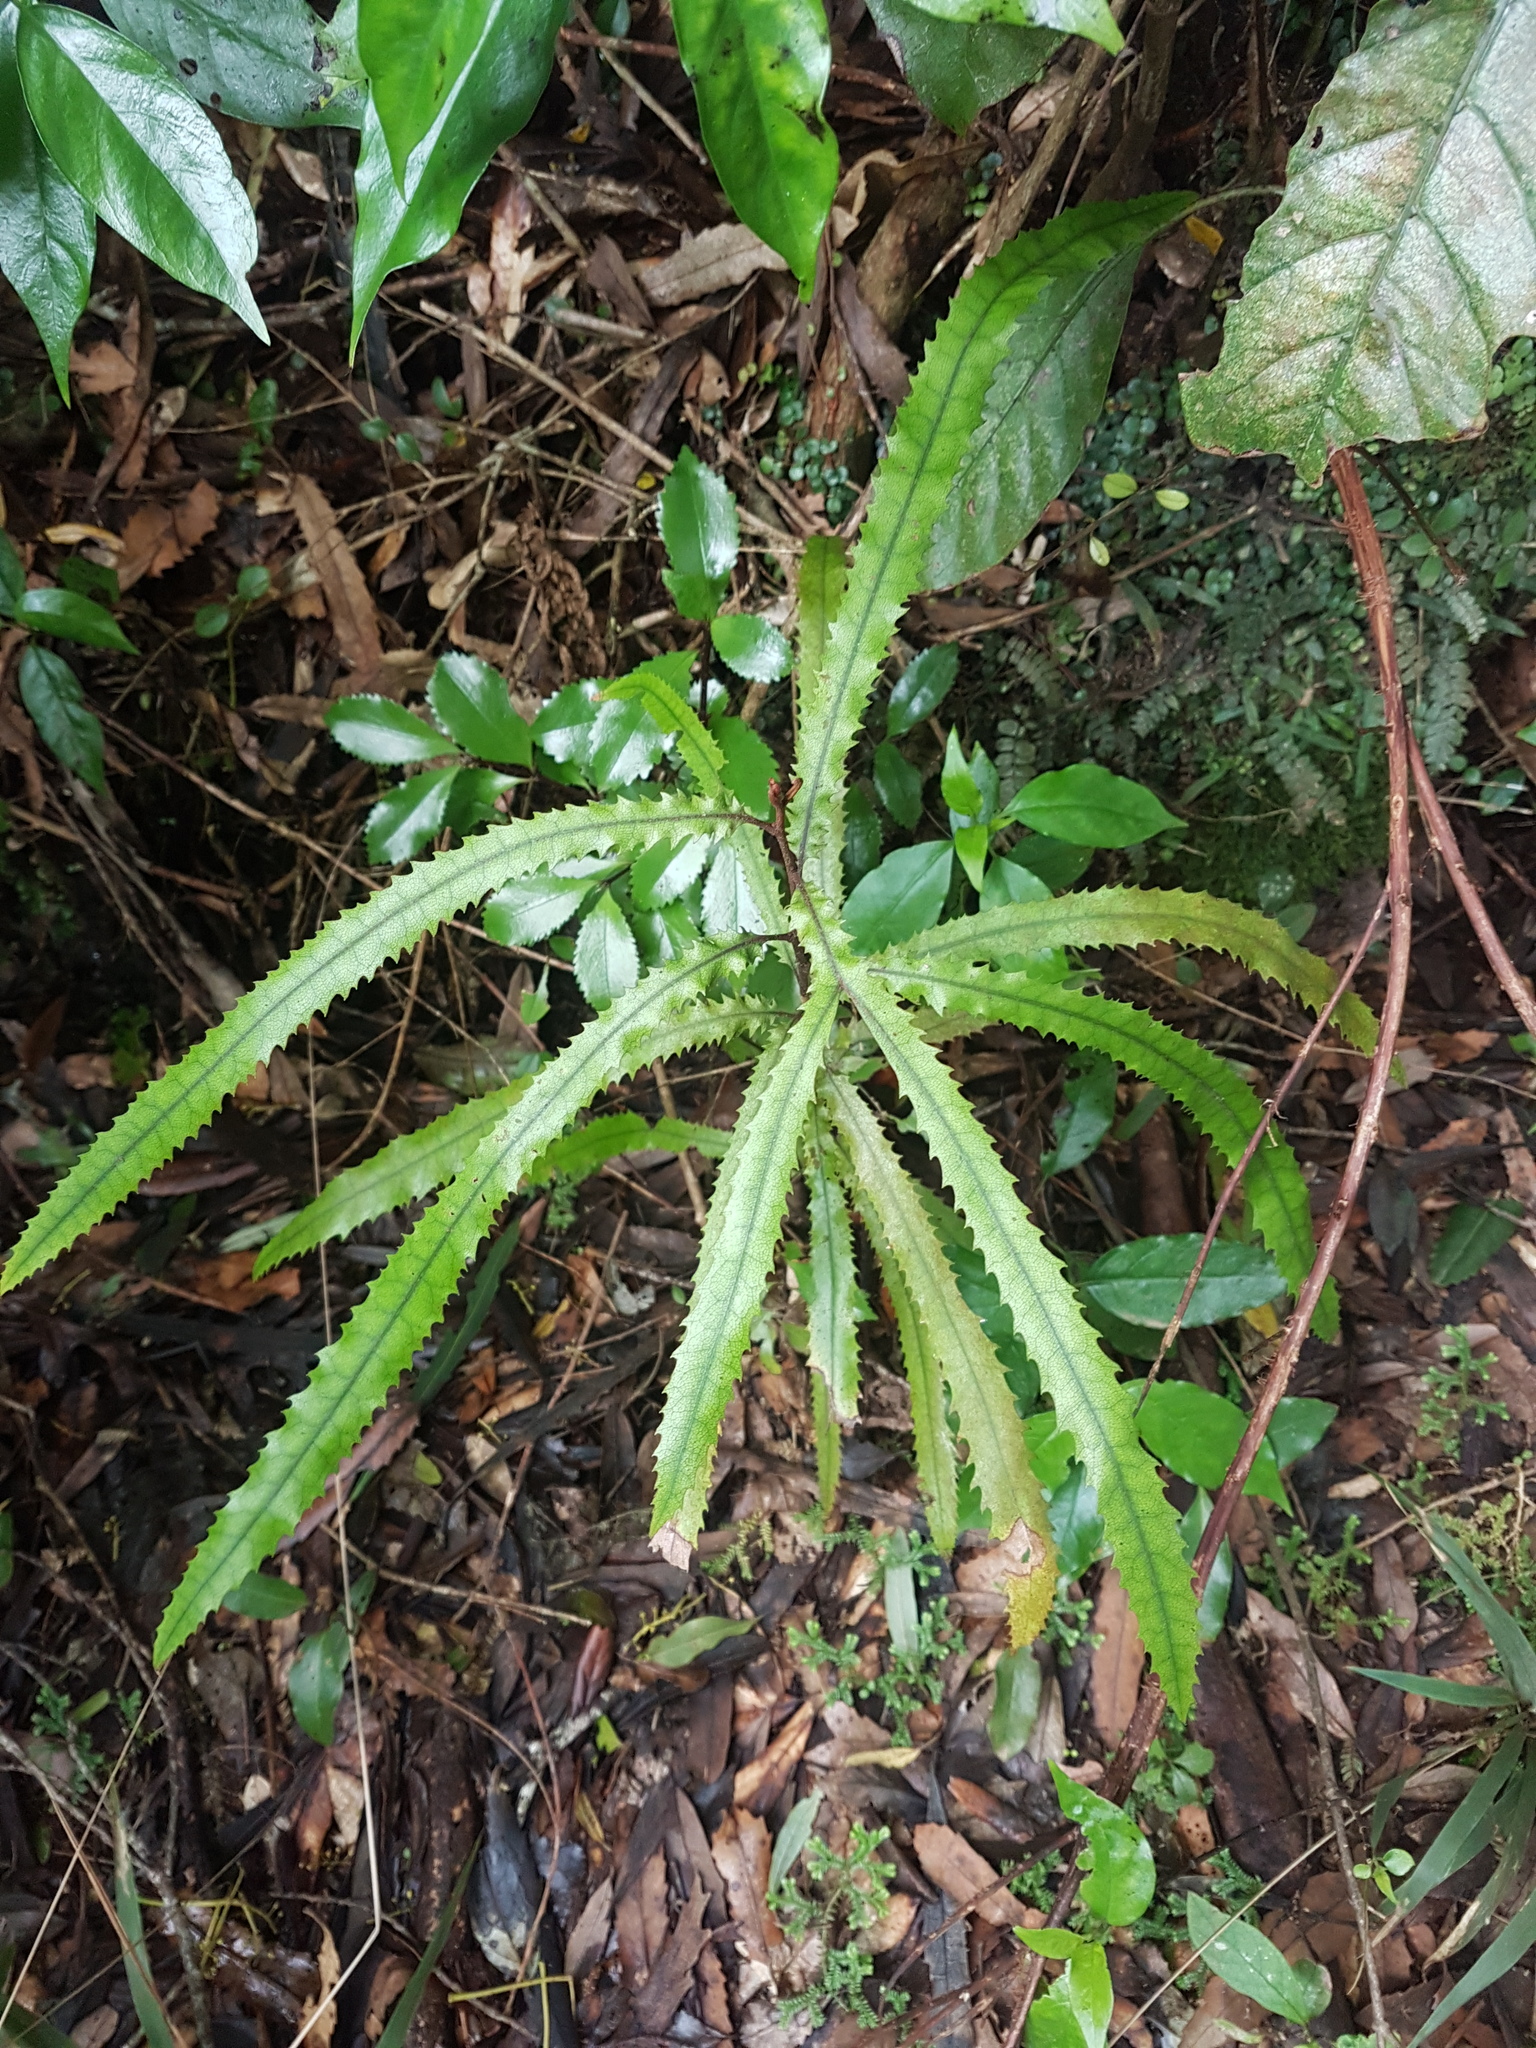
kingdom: Plantae
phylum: Tracheophyta
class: Magnoliopsida
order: Proteales
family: Proteaceae
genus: Knightia
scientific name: Knightia excelsa
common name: New zealand-honeysuckle
